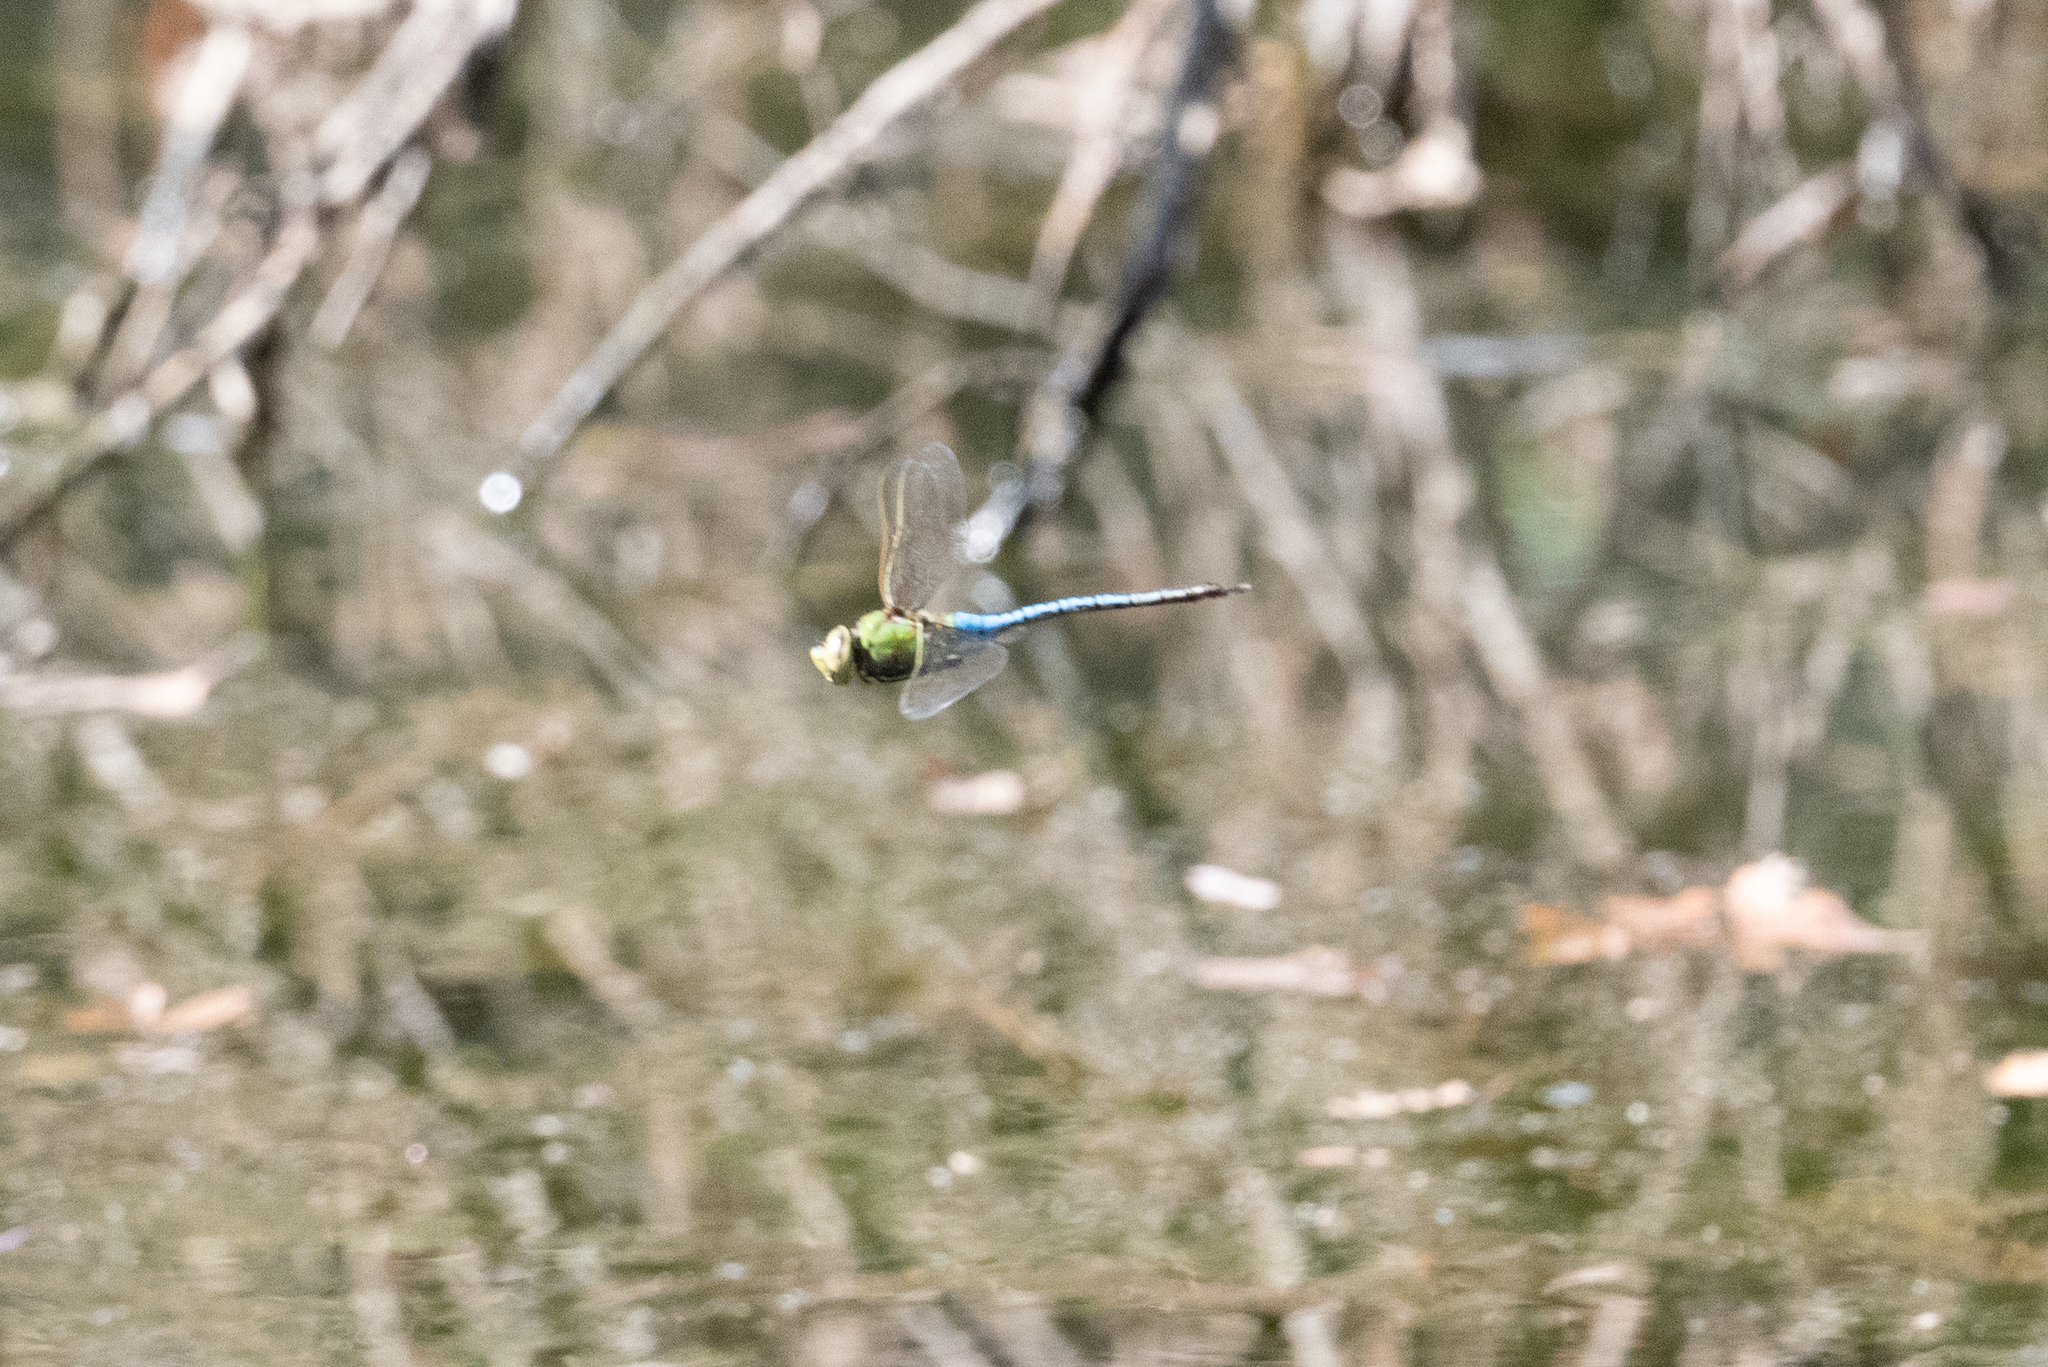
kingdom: Animalia
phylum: Arthropoda
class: Insecta
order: Odonata
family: Aeshnidae
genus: Anax
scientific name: Anax junius
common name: Common green darner
